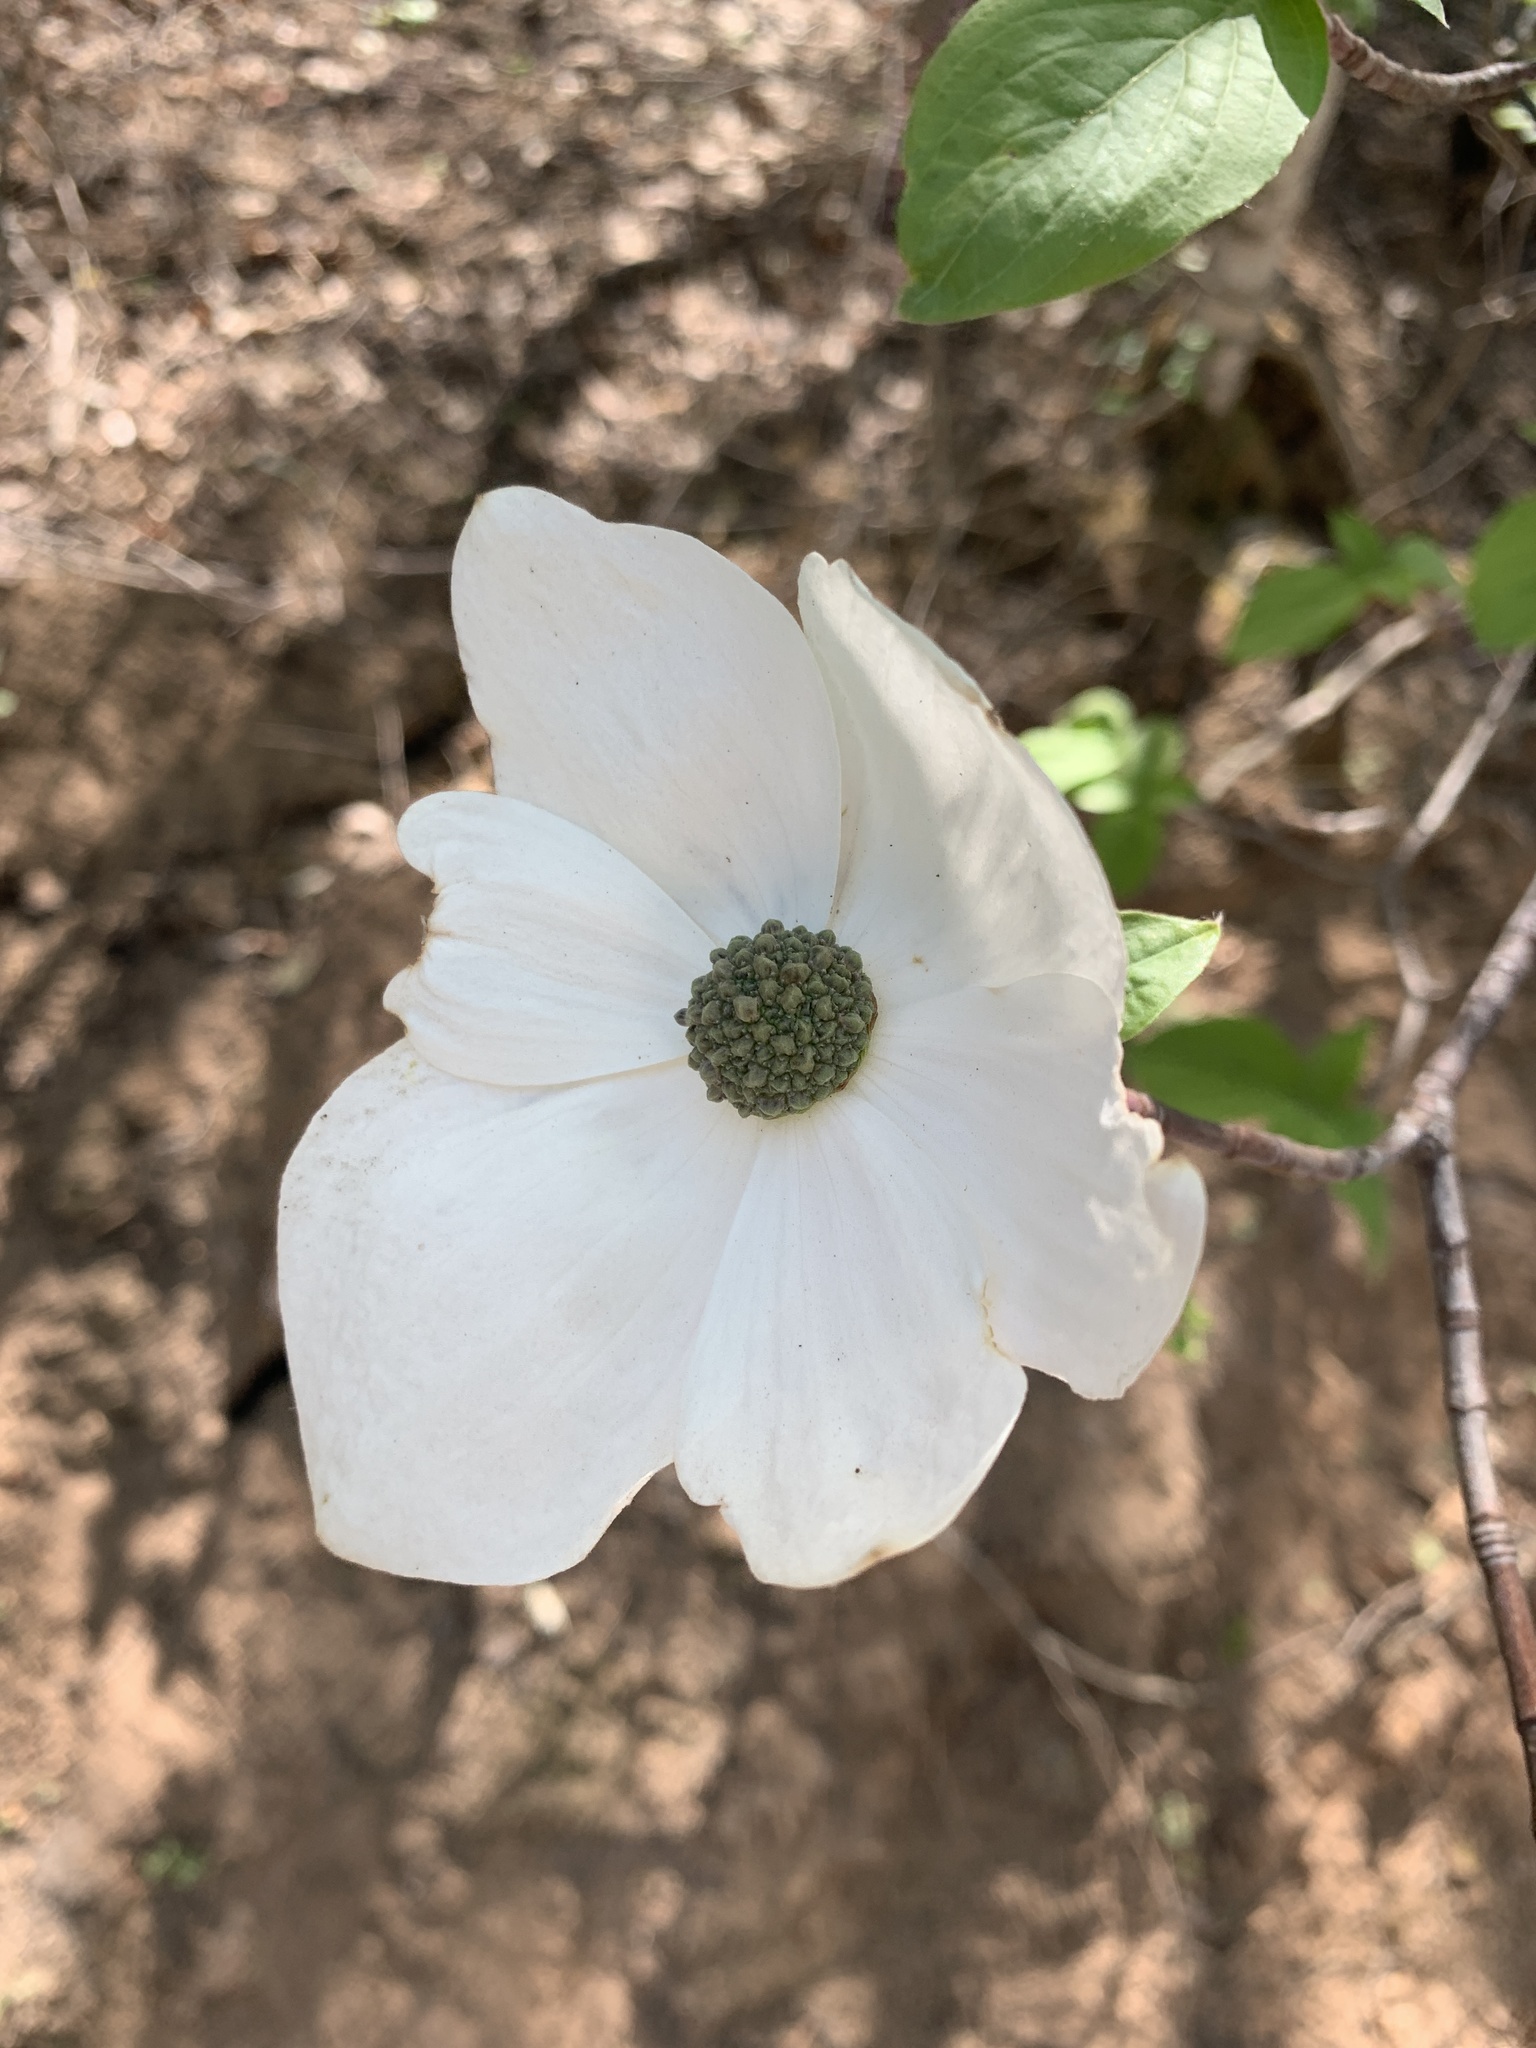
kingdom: Plantae
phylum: Tracheophyta
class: Magnoliopsida
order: Cornales
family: Cornaceae
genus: Cornus
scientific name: Cornus nuttallii
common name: Pacific dogwood
